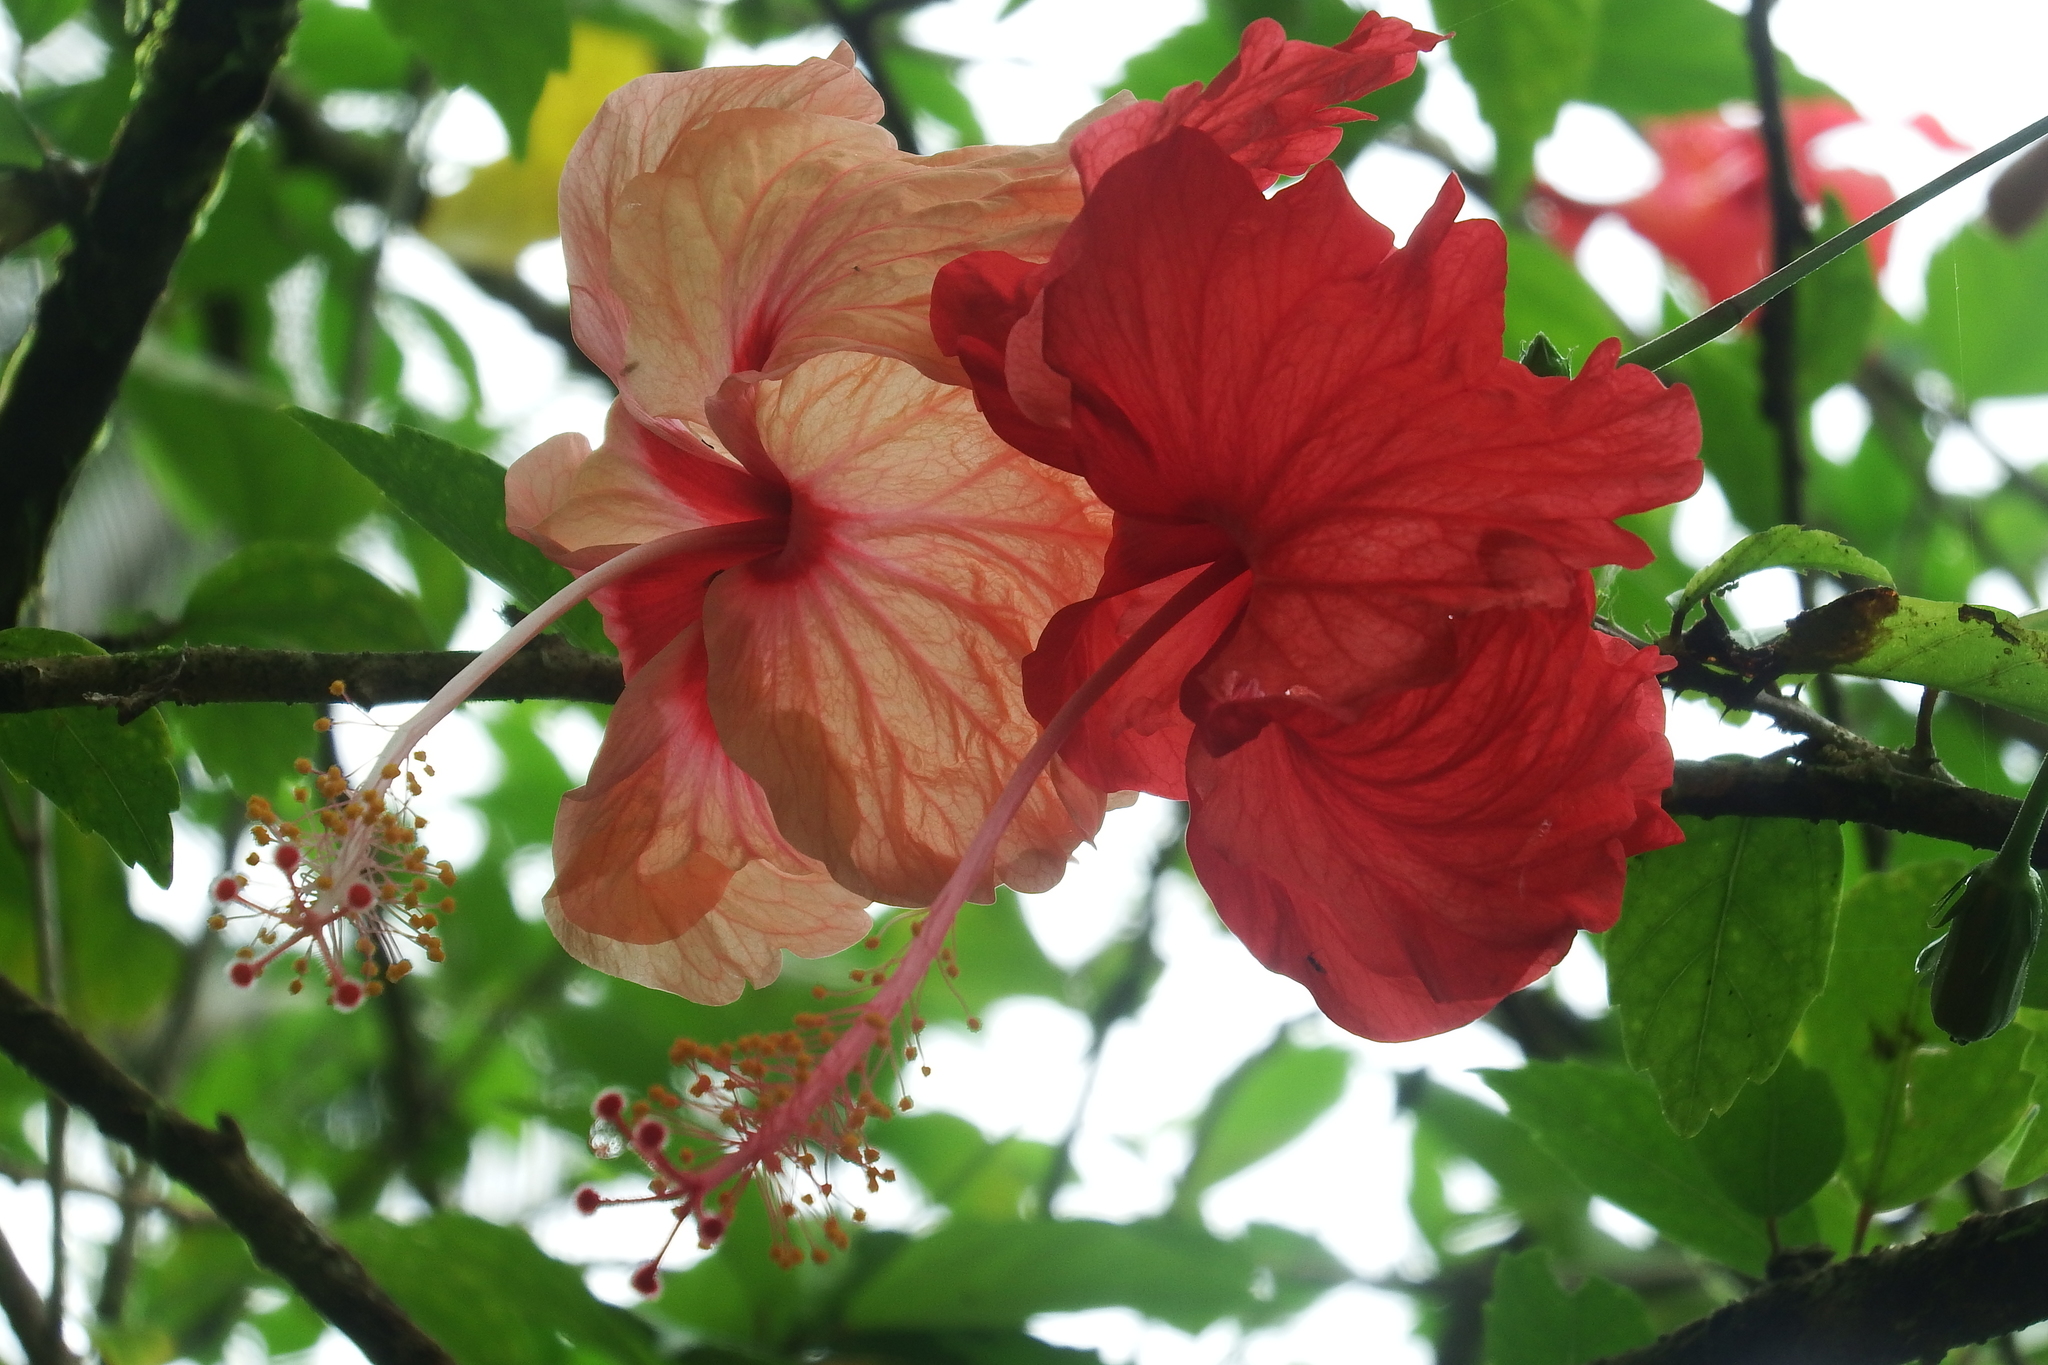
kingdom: Plantae
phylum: Tracheophyta
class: Magnoliopsida
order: Malvales
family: Malvaceae
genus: Hibiscus
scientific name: Hibiscus archeri
